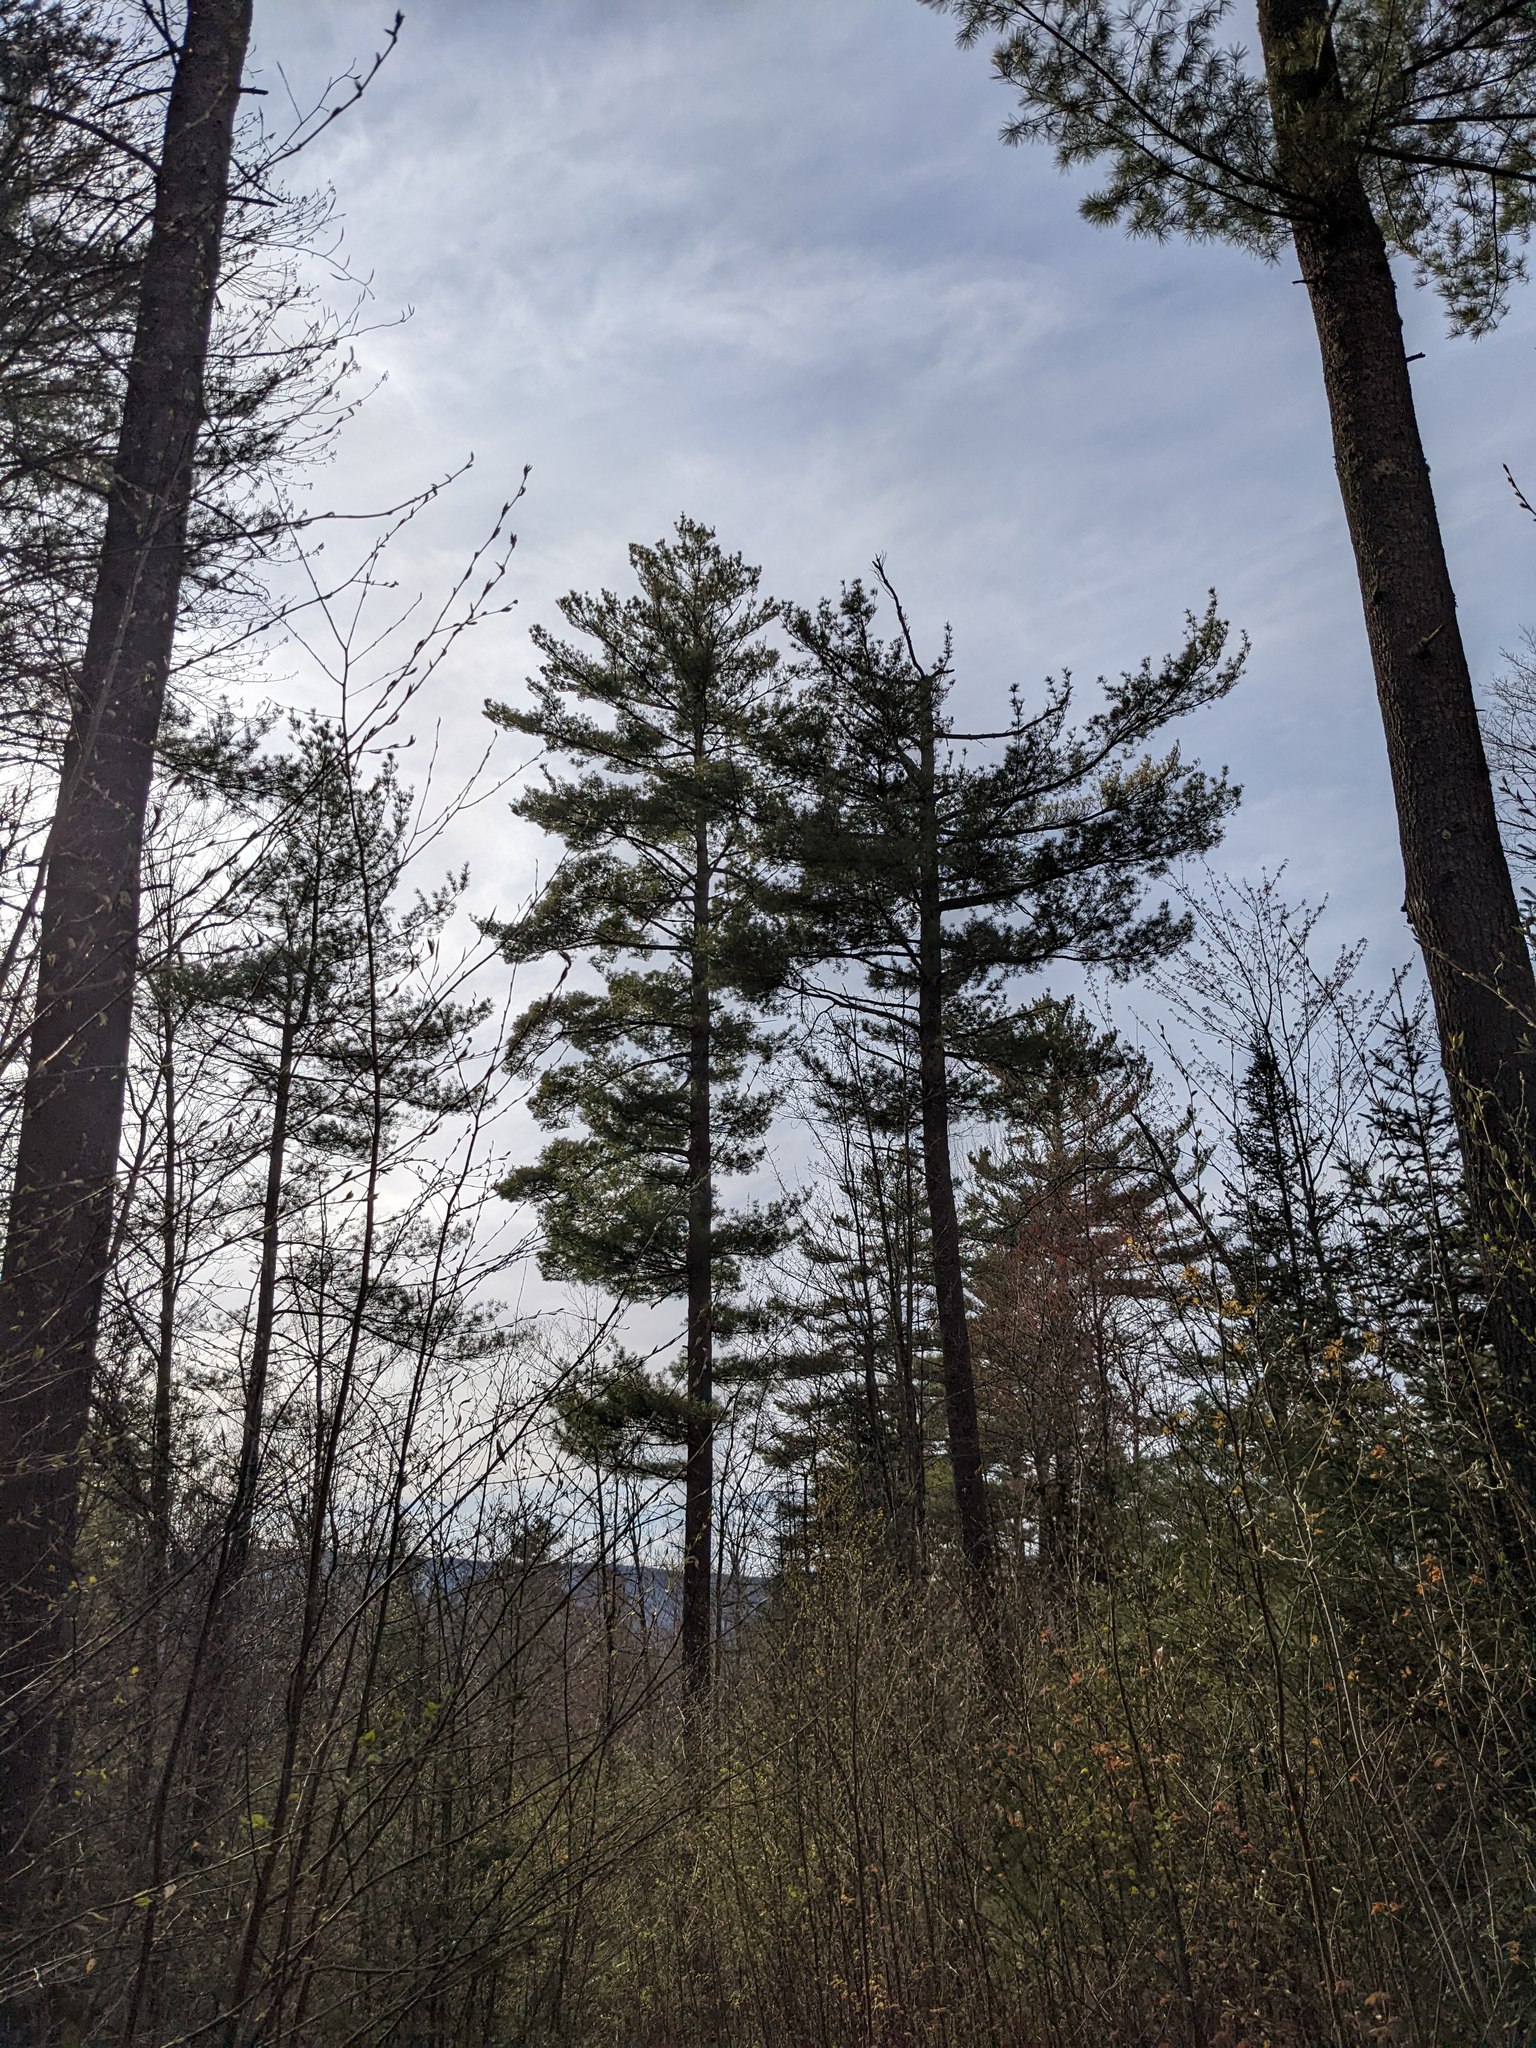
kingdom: Plantae
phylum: Tracheophyta
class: Pinopsida
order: Pinales
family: Pinaceae
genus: Pinus
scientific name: Pinus strobus
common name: Weymouth pine
